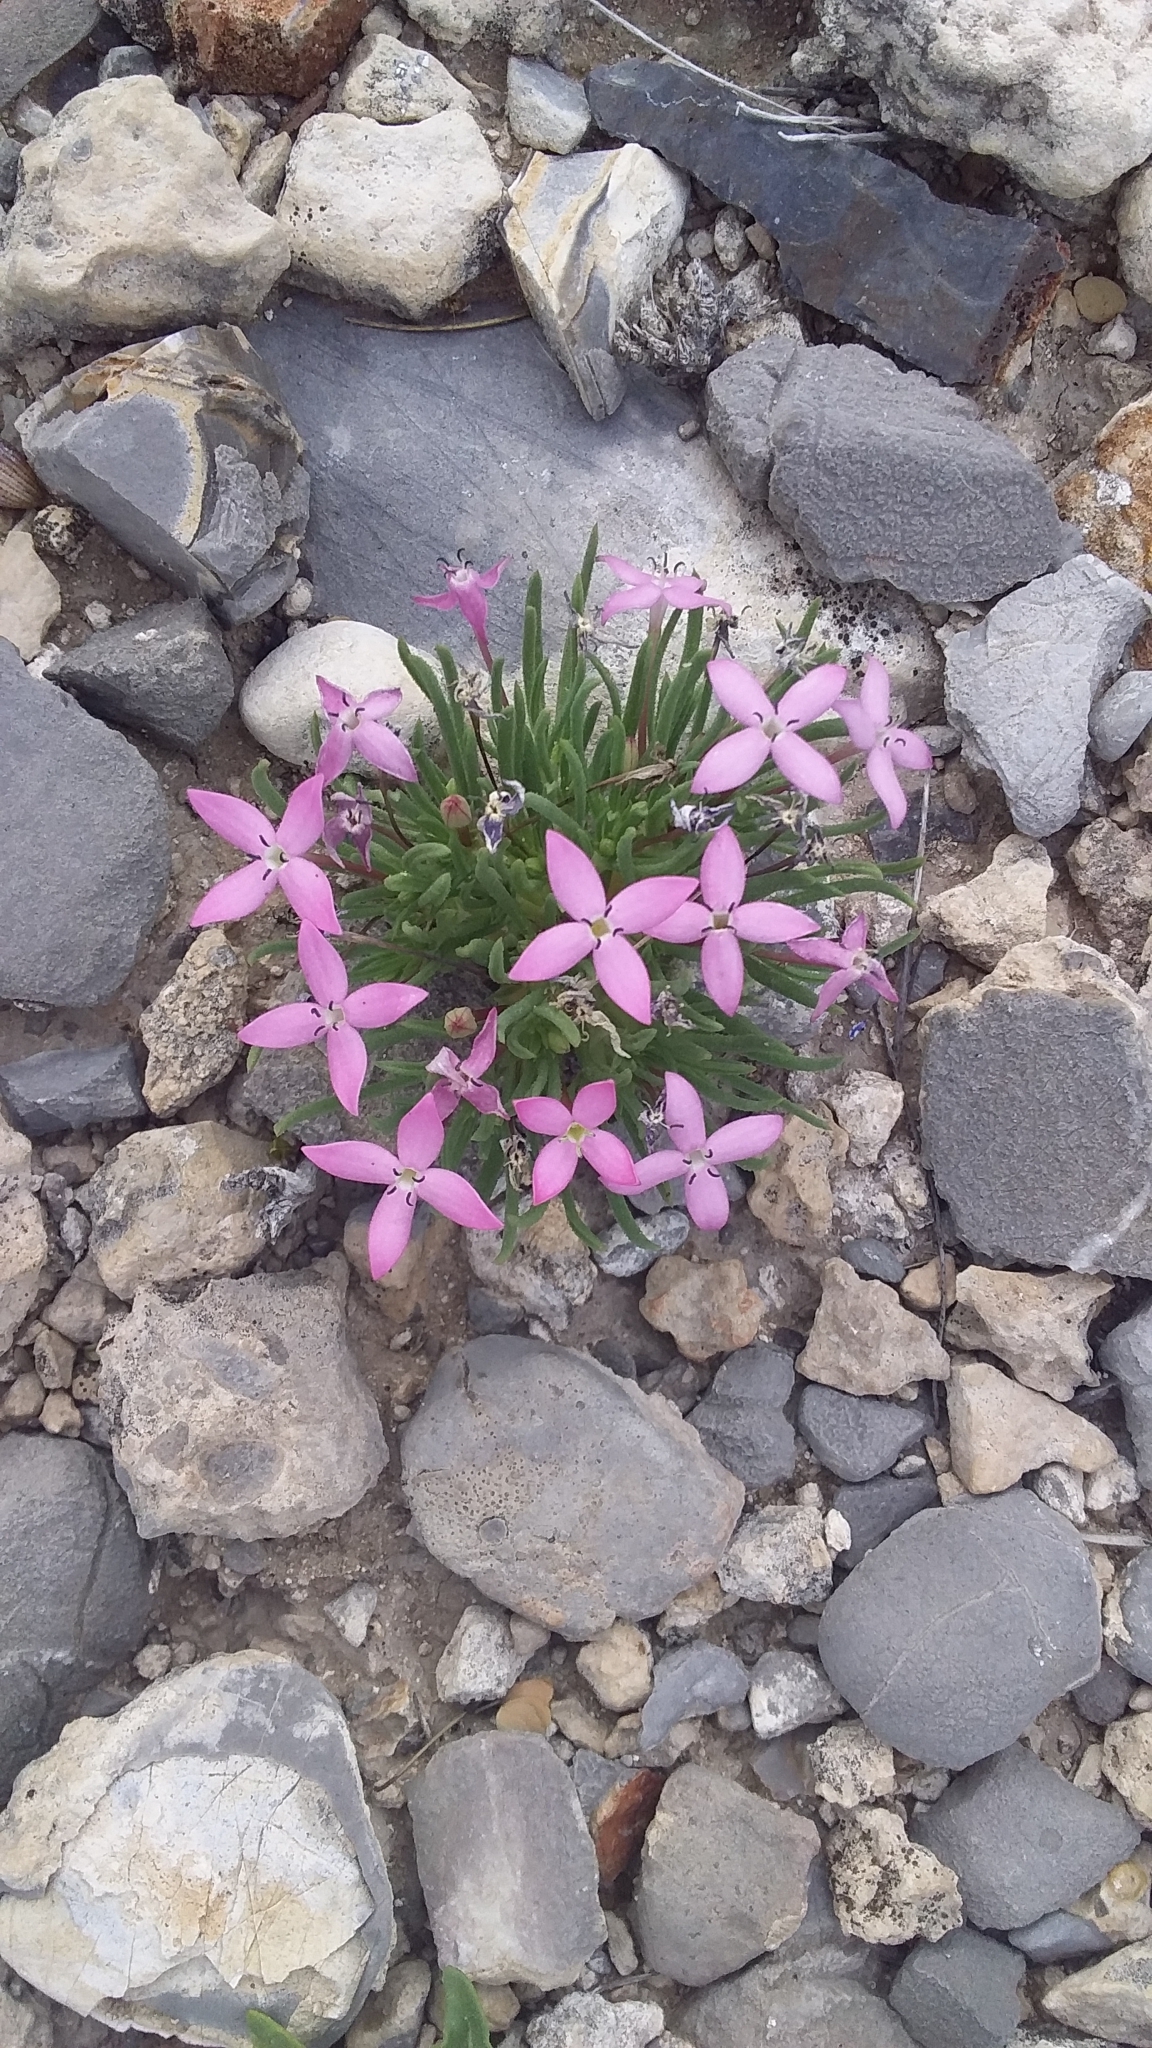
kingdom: Plantae
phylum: Tracheophyta
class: Magnoliopsida
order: Gentianales
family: Rubiaceae
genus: Houstonia
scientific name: Houstonia rubra
